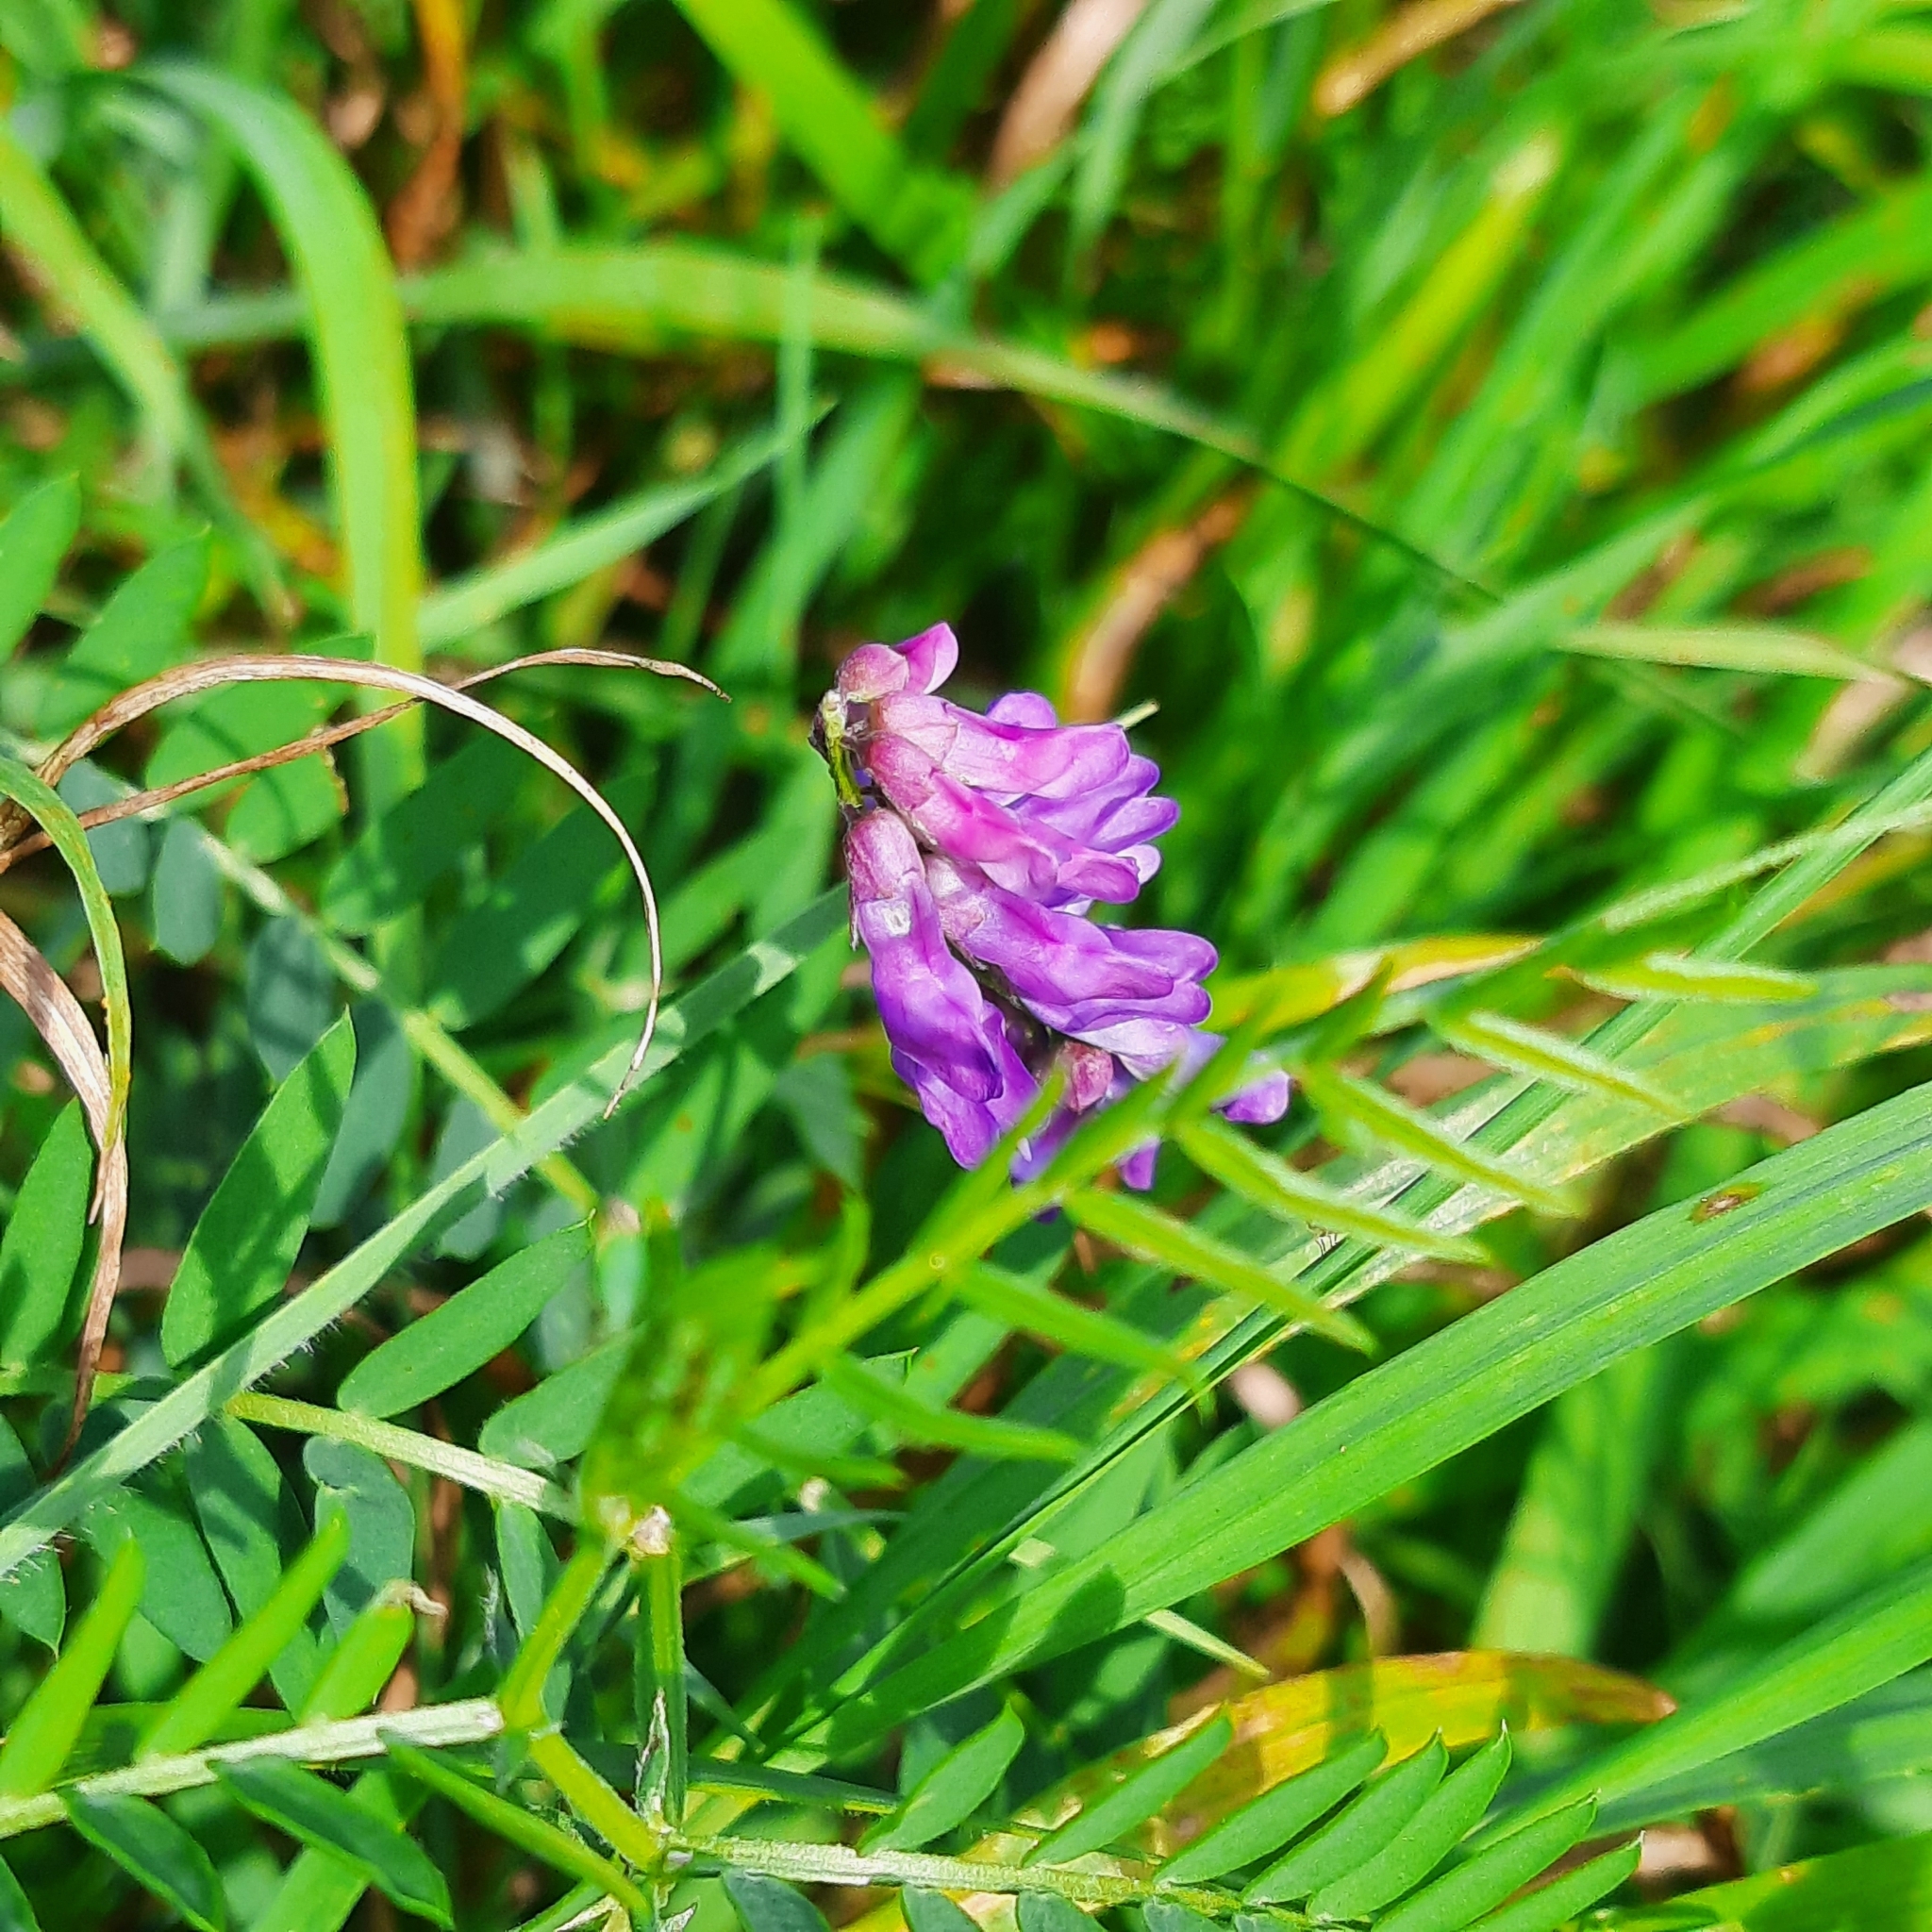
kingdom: Plantae
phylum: Tracheophyta
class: Magnoliopsida
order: Fabales
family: Fabaceae
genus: Vicia
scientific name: Vicia cracca
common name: Bird vetch
